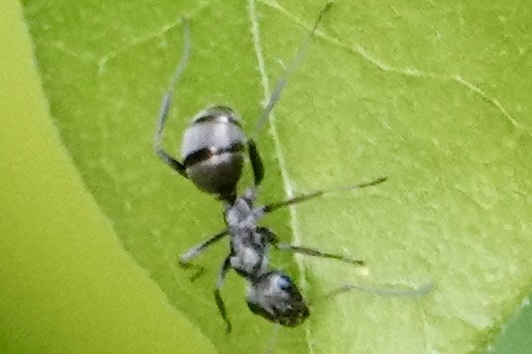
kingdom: Animalia
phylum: Arthropoda
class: Insecta
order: Hymenoptera
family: Formicidae
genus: Formica
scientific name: Formica subsericea
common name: Silky field ant
